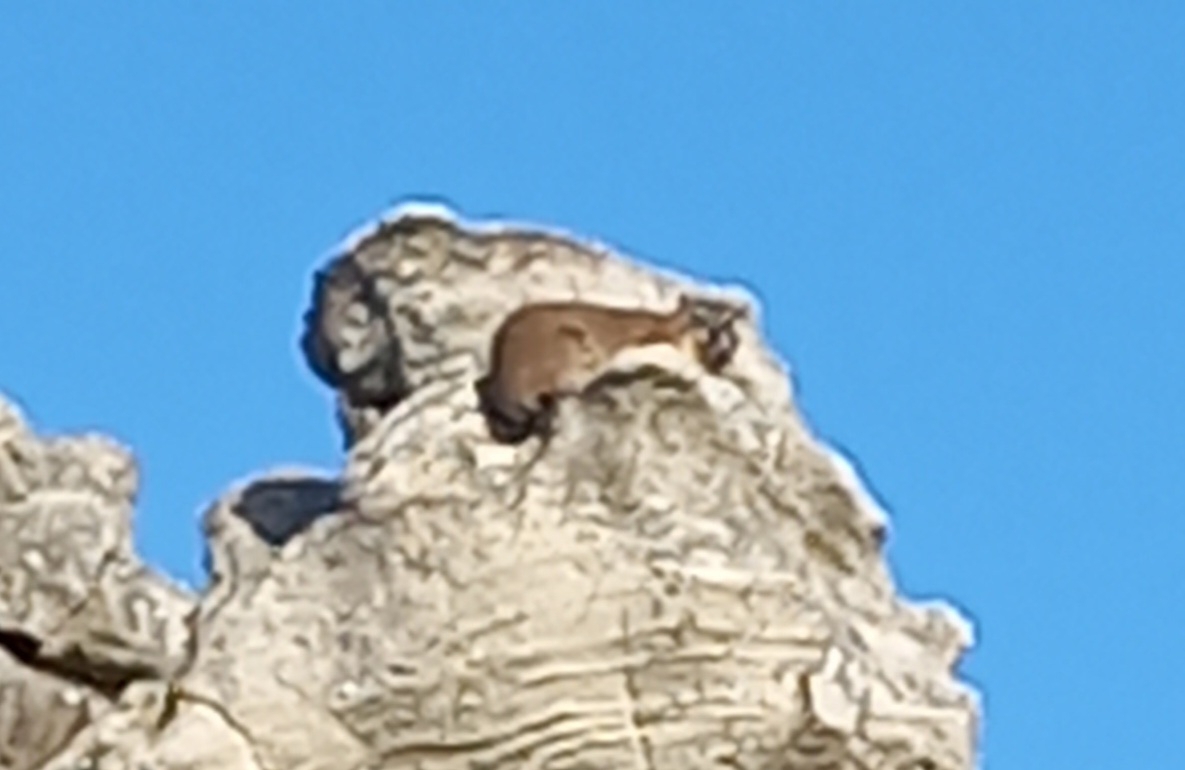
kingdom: Animalia
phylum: Chordata
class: Mammalia
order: Hyracoidea
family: Procaviidae
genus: Procavia
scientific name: Procavia capensis
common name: Rock hyrax
